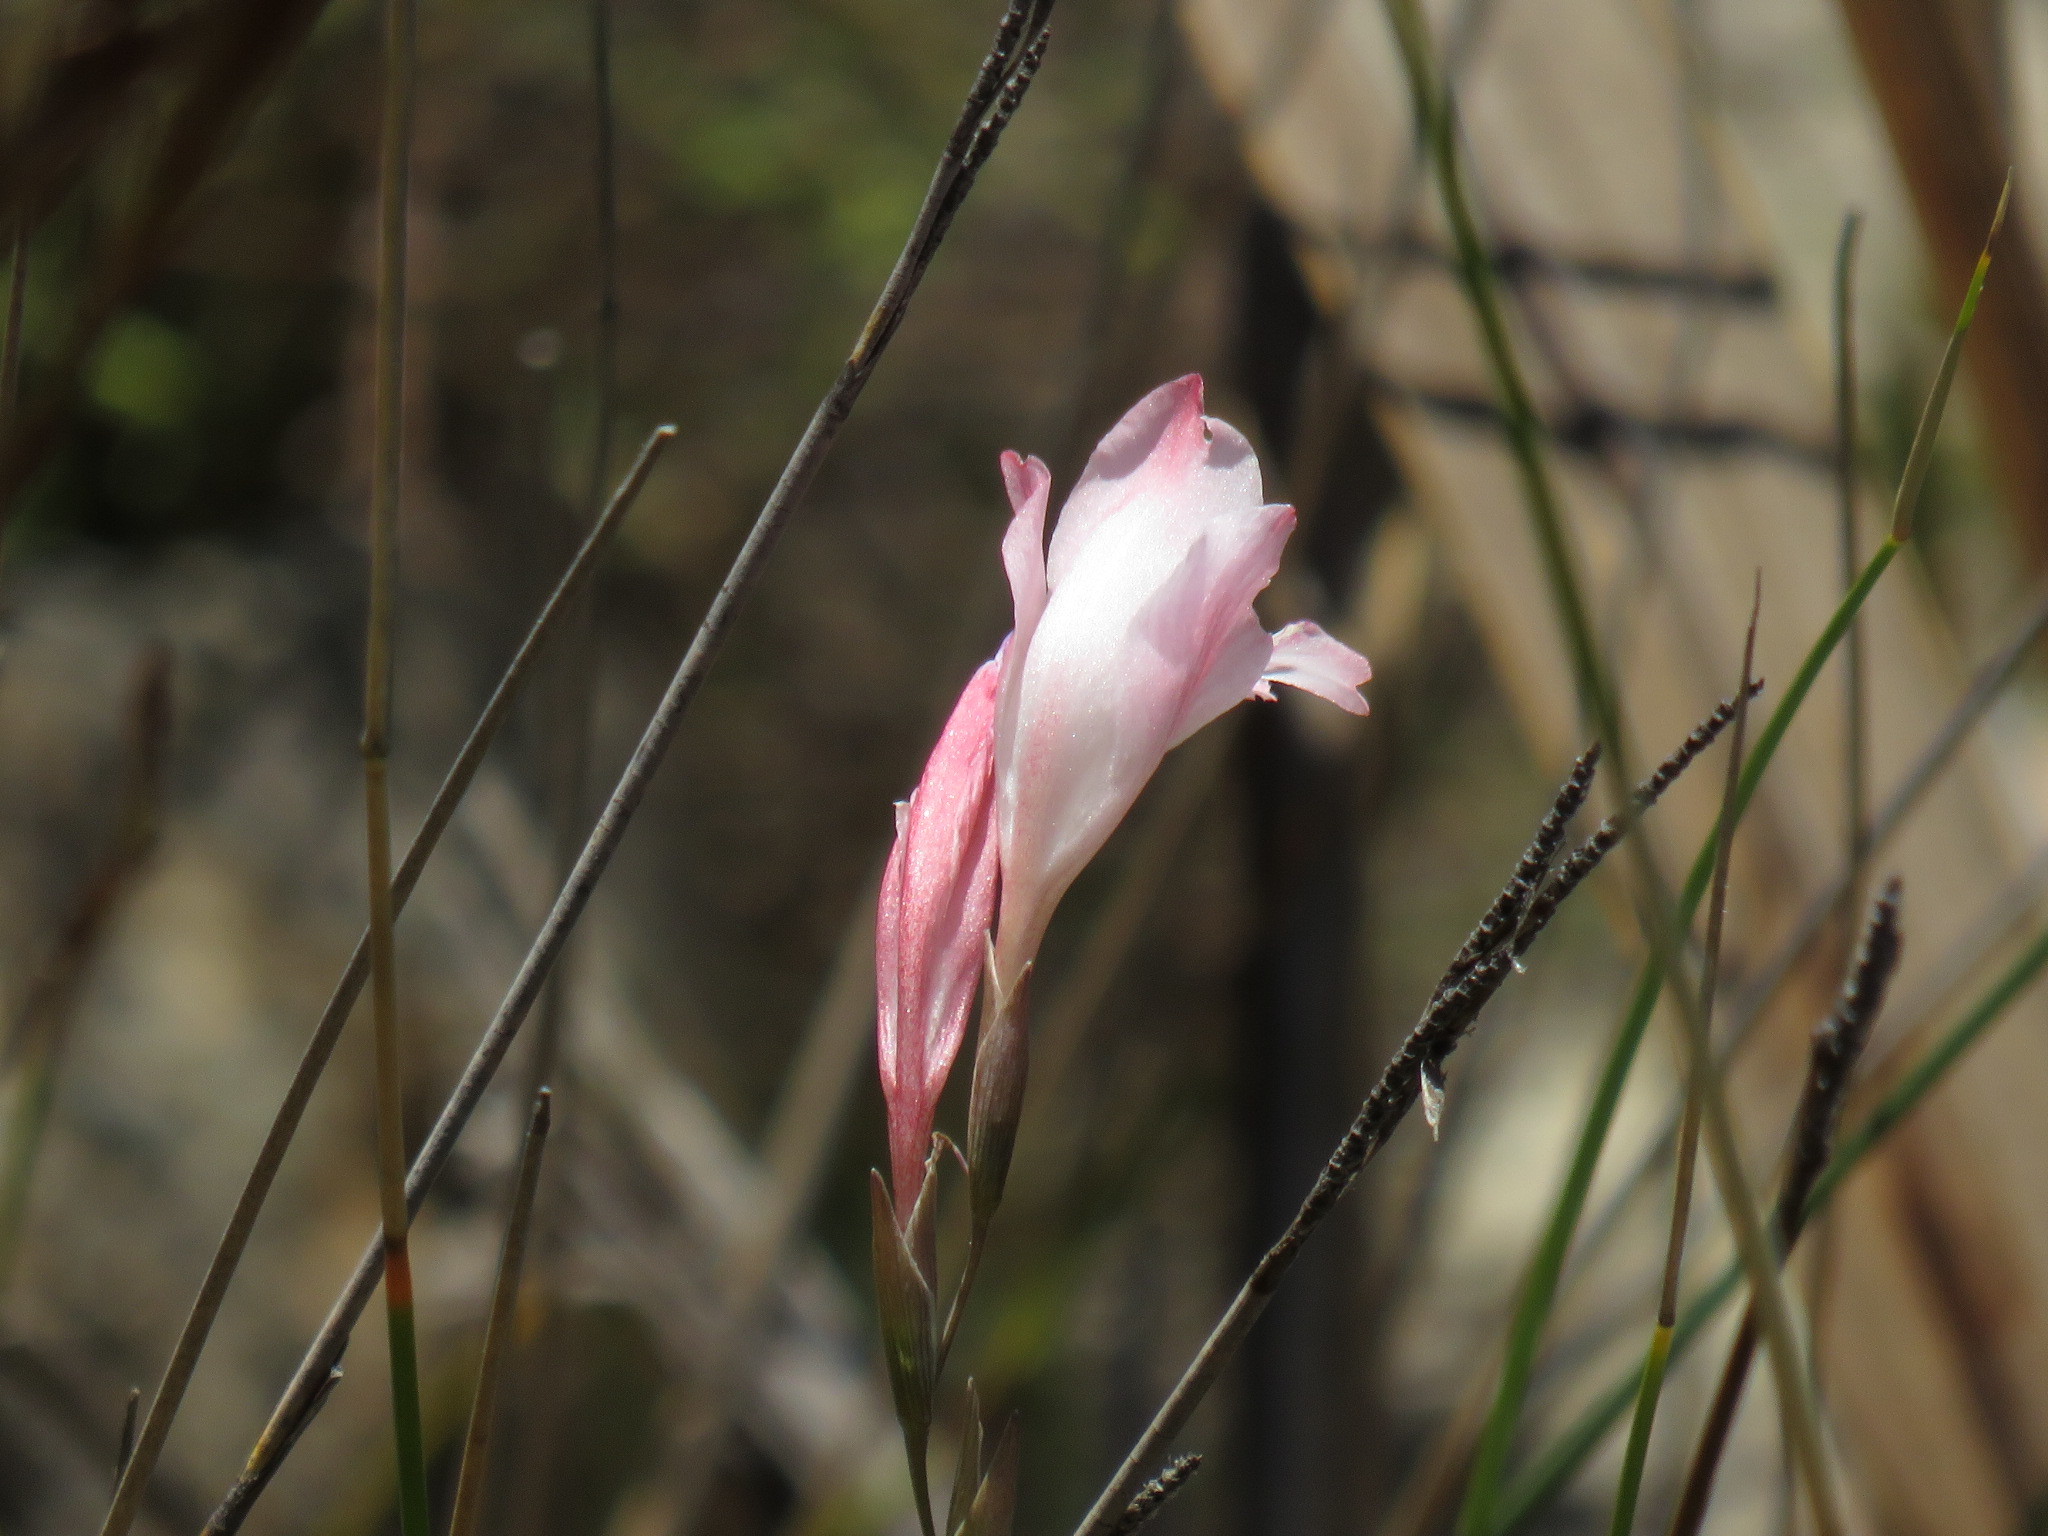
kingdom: Plantae
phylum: Tracheophyta
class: Liliopsida
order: Asparagales
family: Iridaceae
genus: Gladiolus
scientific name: Gladiolus brevifolius
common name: March pypie
